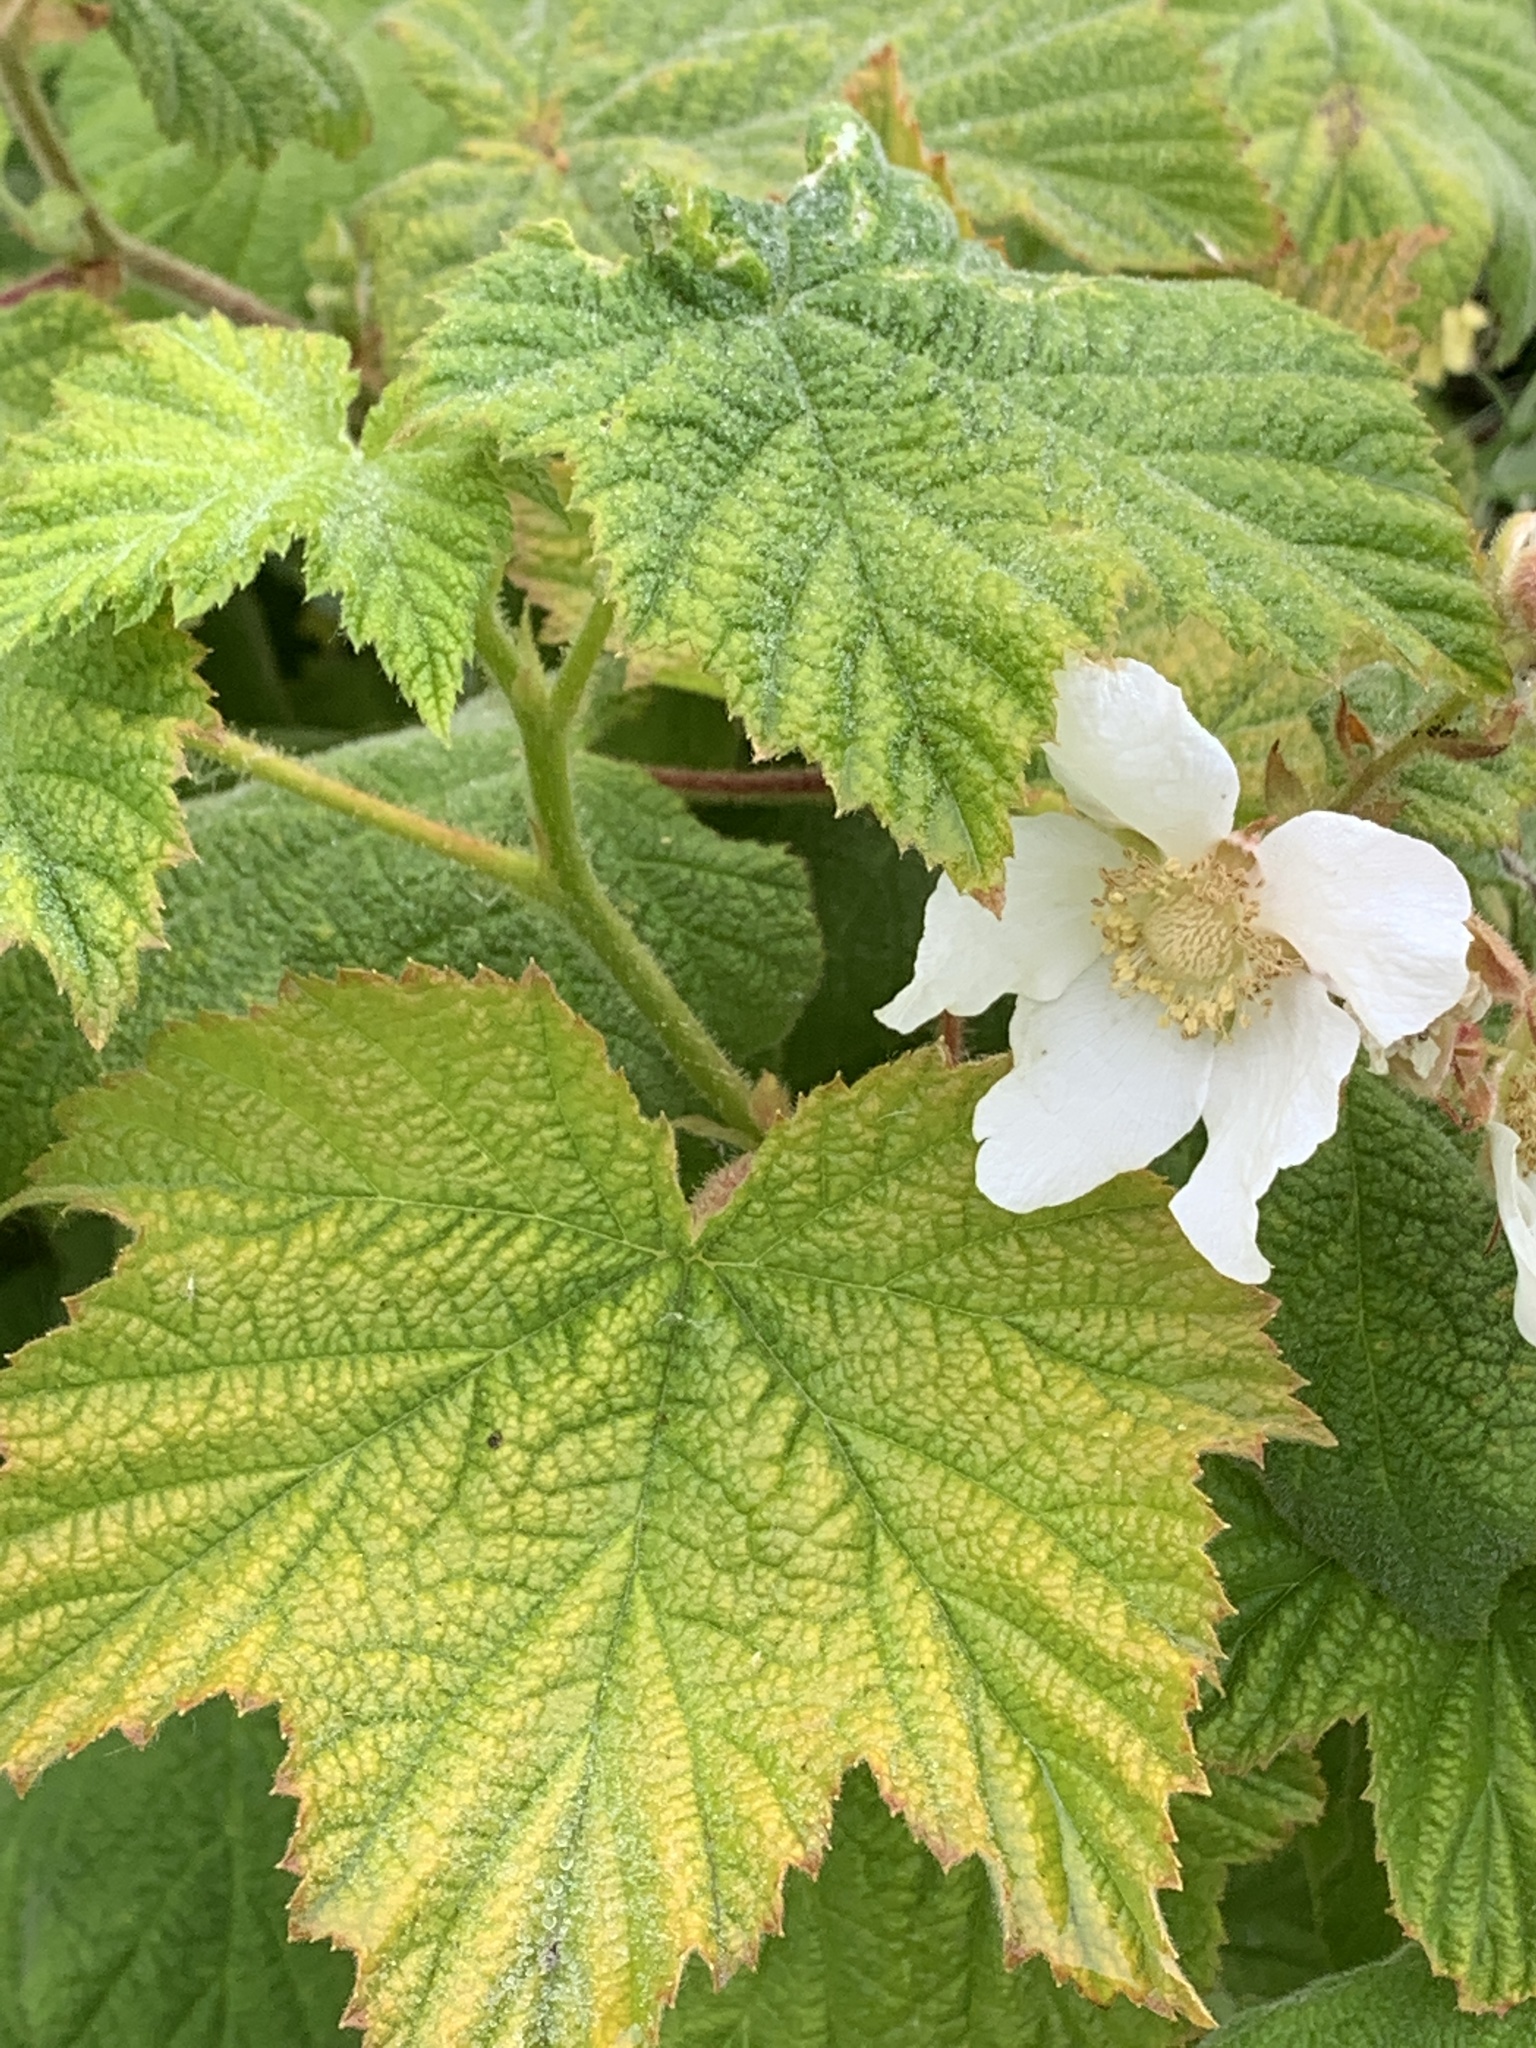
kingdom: Plantae
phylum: Tracheophyta
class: Magnoliopsida
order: Rosales
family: Rosaceae
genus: Rubus
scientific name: Rubus parviflorus
